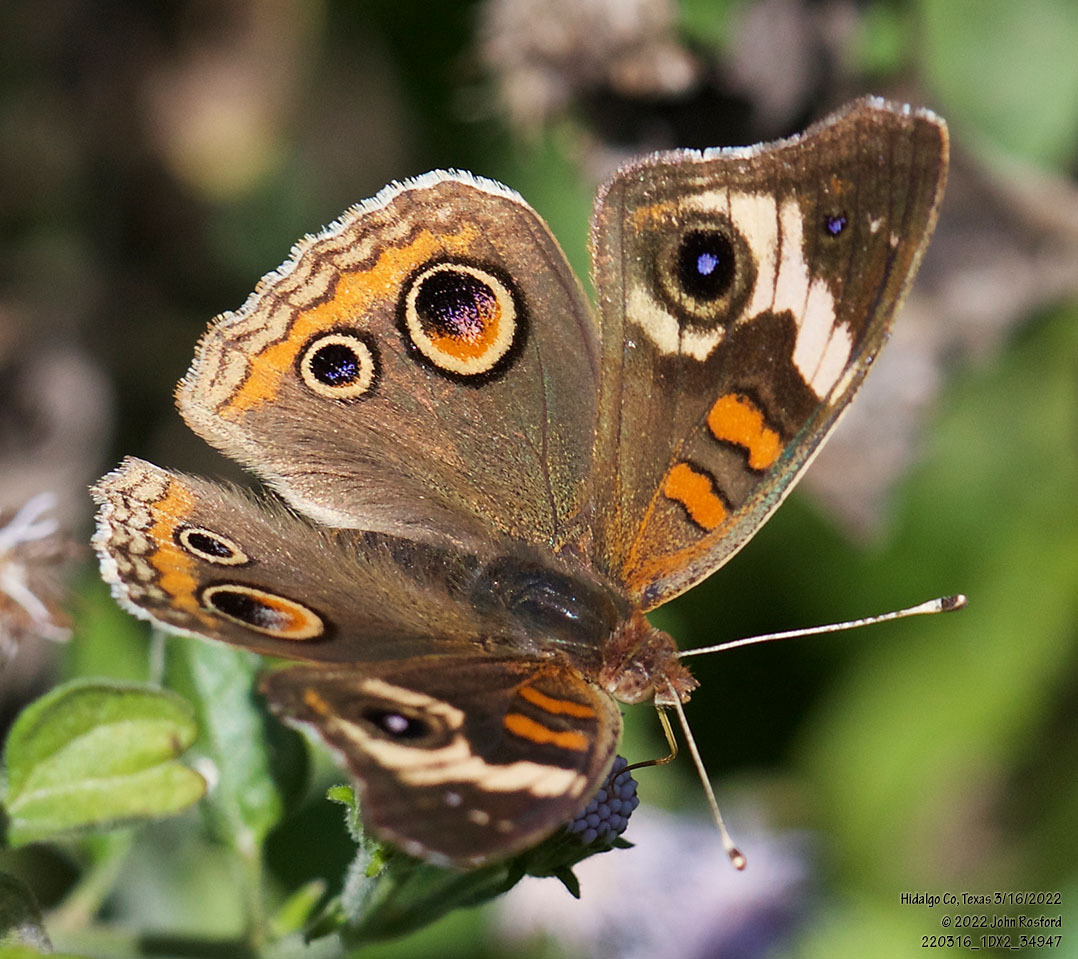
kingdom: Animalia
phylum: Arthropoda
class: Insecta
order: Lepidoptera
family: Nymphalidae
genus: Junonia
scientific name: Junonia coenia
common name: Common buckeye
